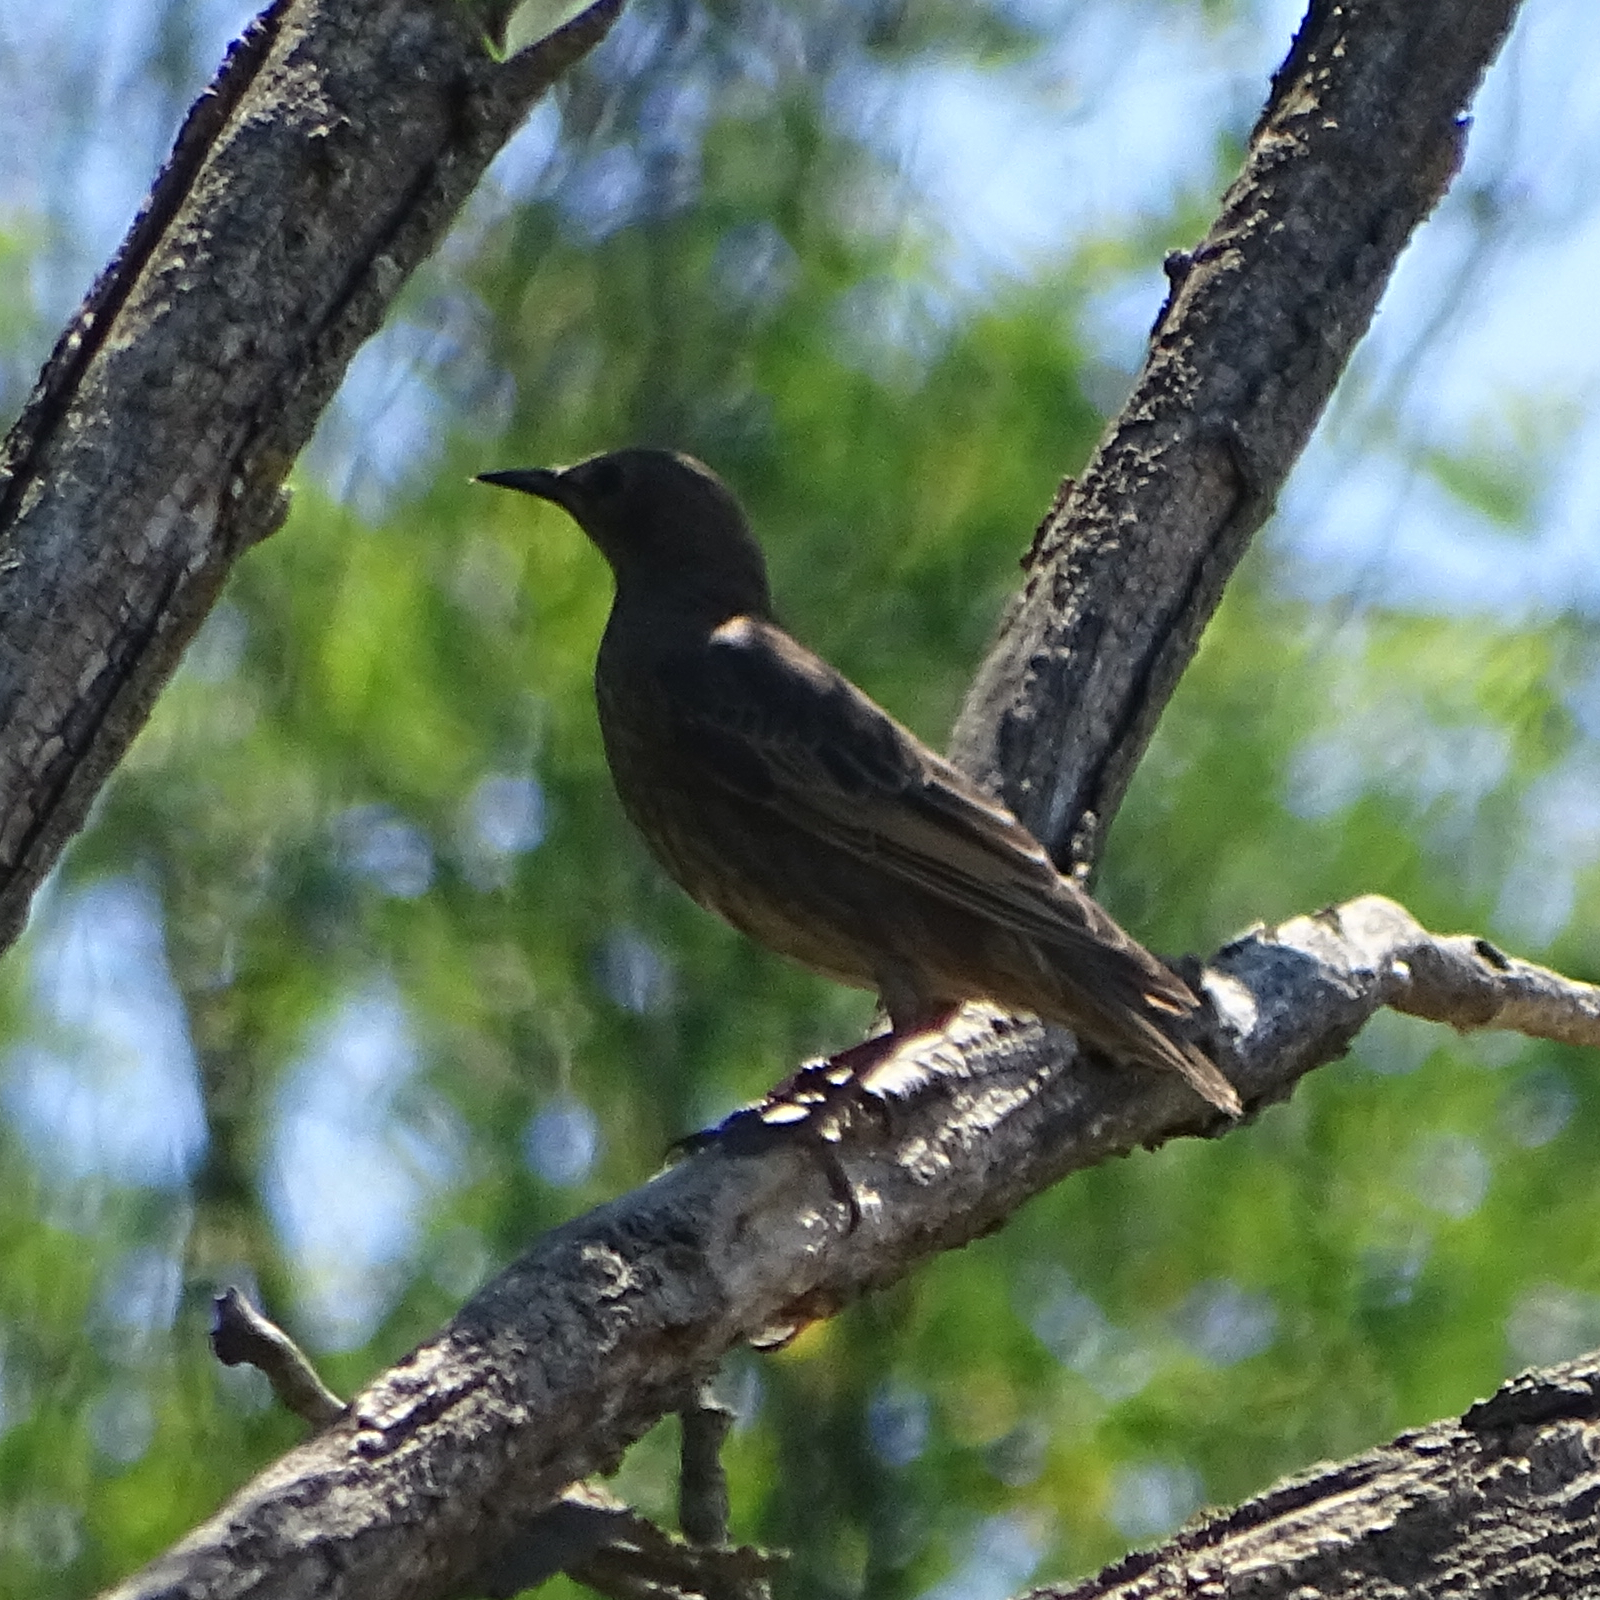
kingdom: Animalia
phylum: Chordata
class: Aves
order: Passeriformes
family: Sturnidae
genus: Sturnus
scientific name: Sturnus vulgaris
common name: Common starling
